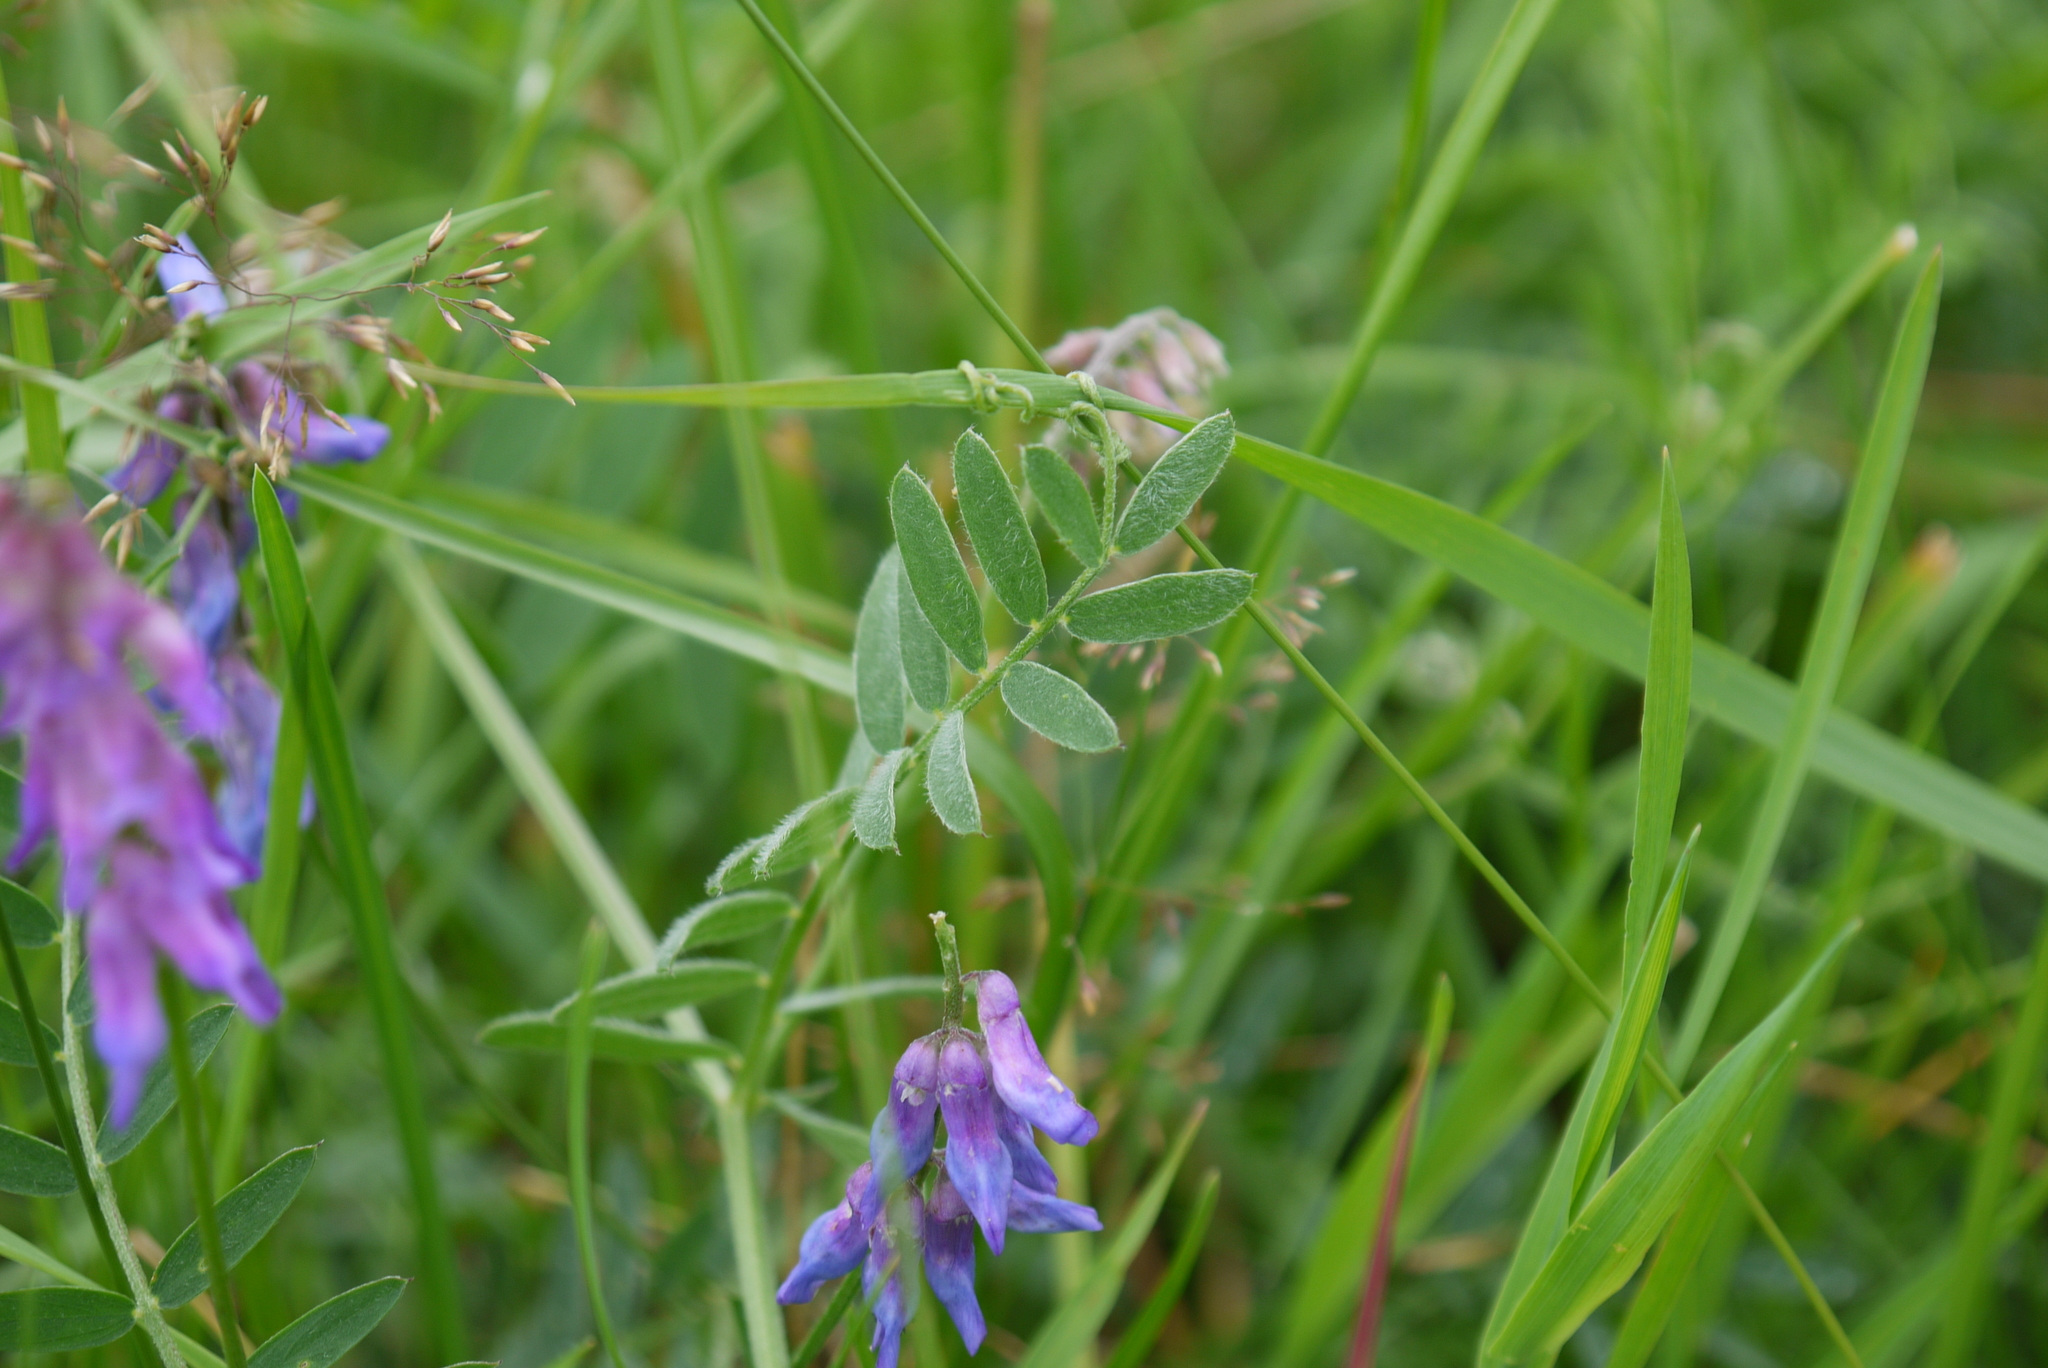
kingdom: Plantae
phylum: Tracheophyta
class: Magnoliopsida
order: Fabales
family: Fabaceae
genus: Vicia
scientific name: Vicia cracca
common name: Bird vetch
